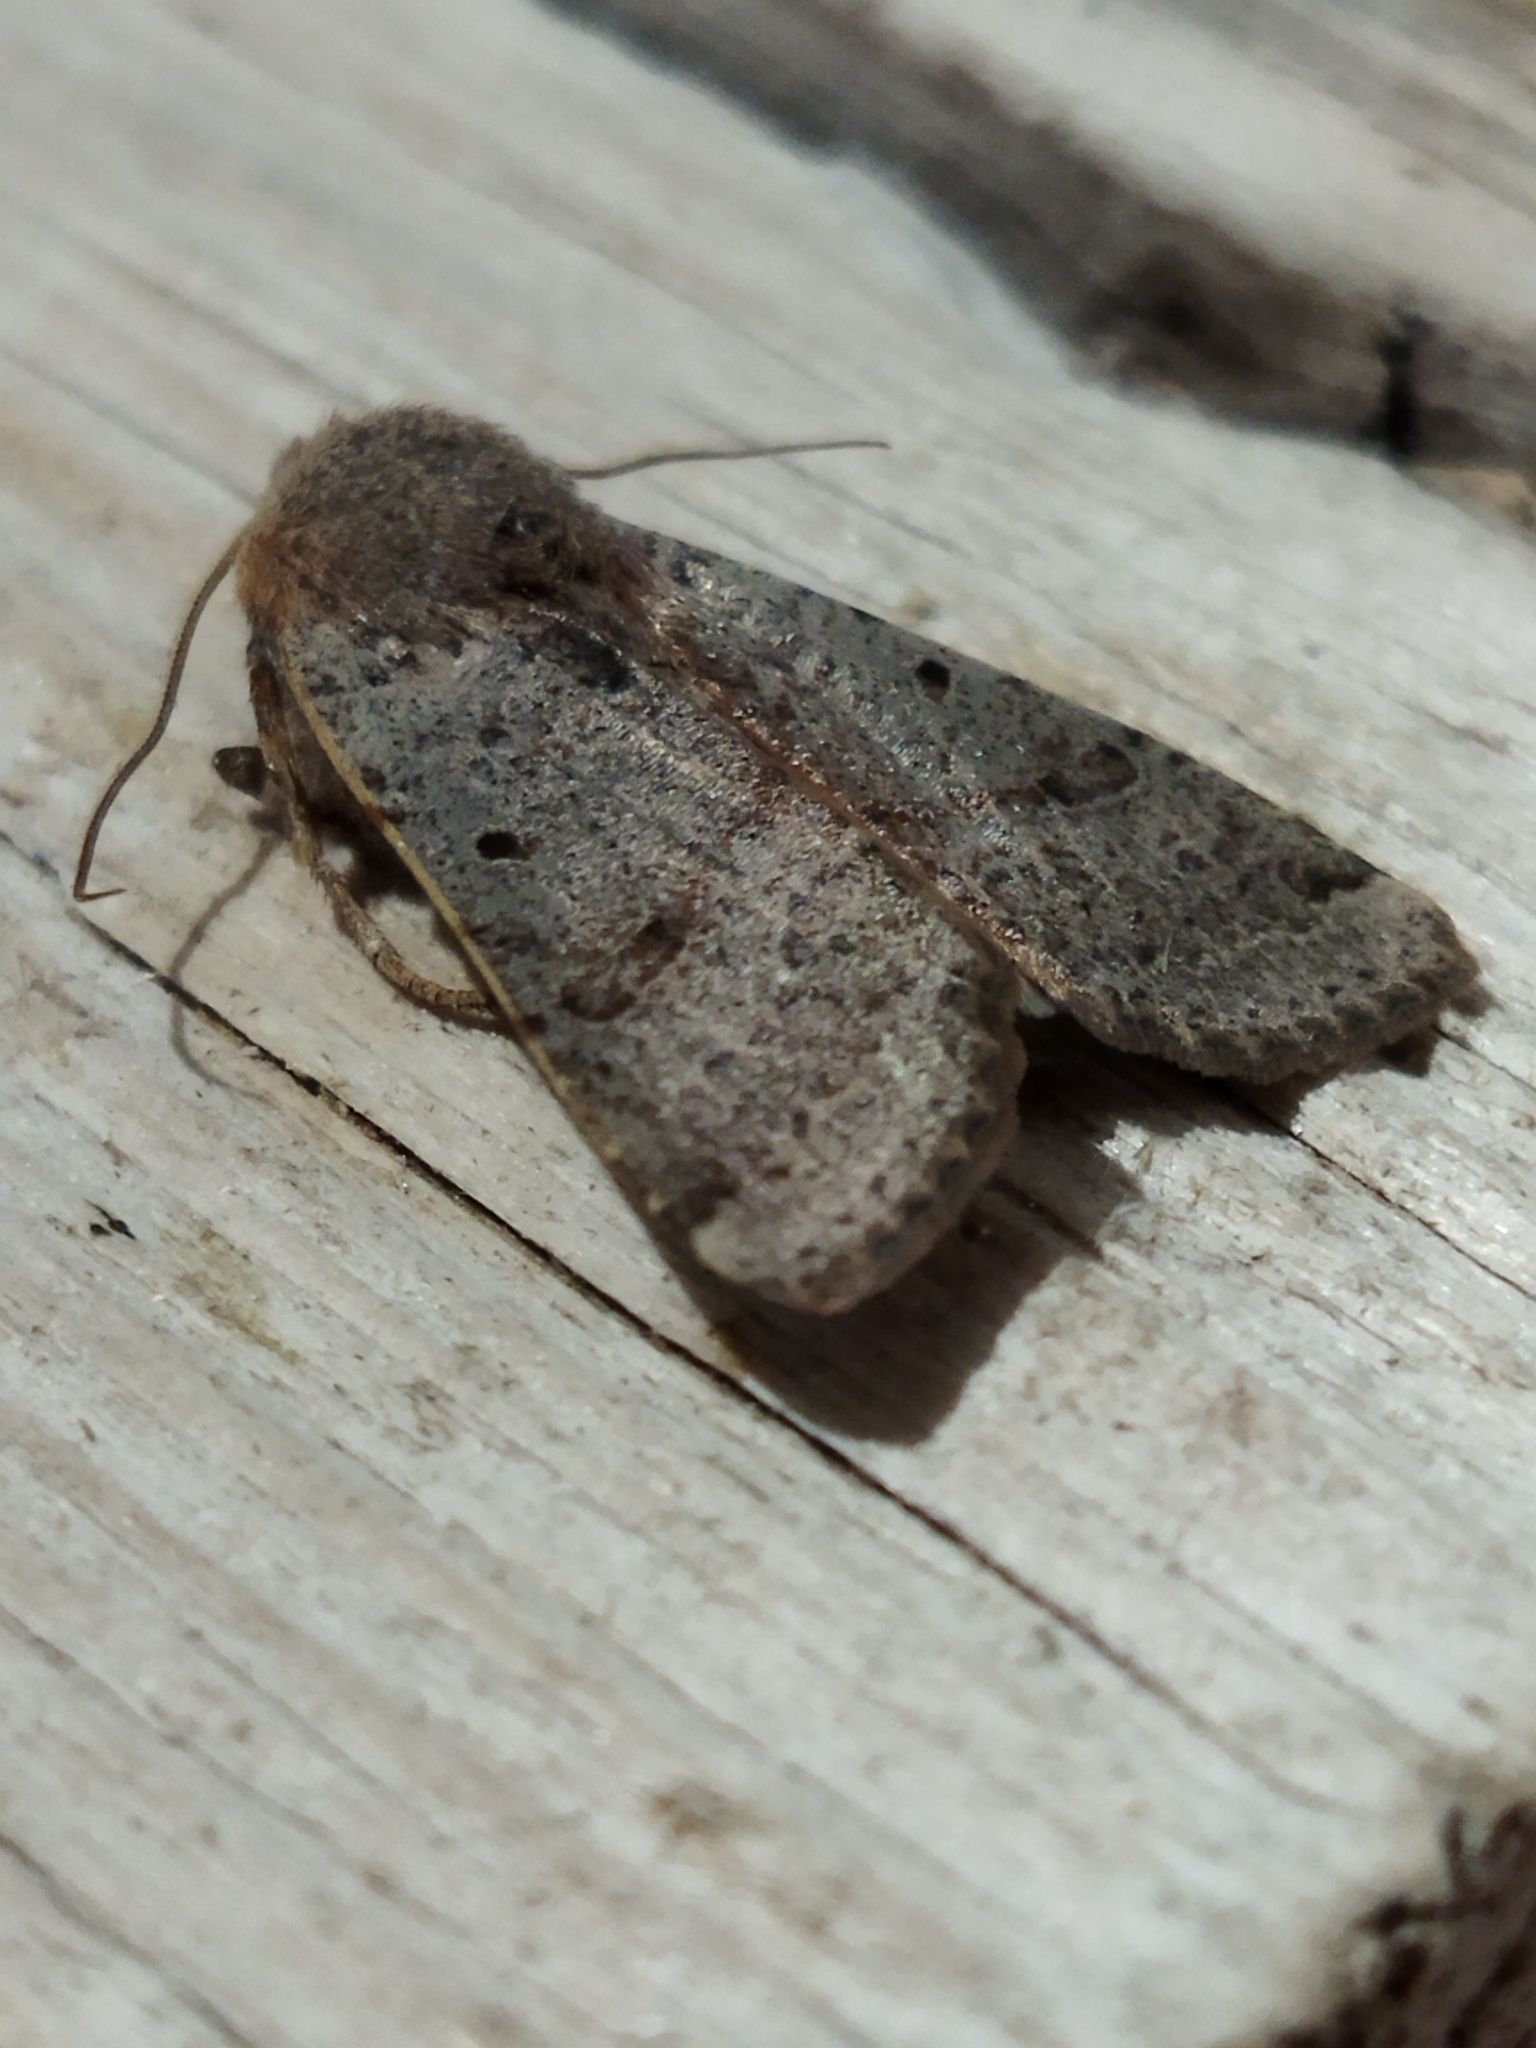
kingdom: Animalia
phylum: Arthropoda
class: Insecta
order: Lepidoptera
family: Noctuidae
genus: Agrochola
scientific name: Agrochola lychnidis
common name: Beaded chestnut
